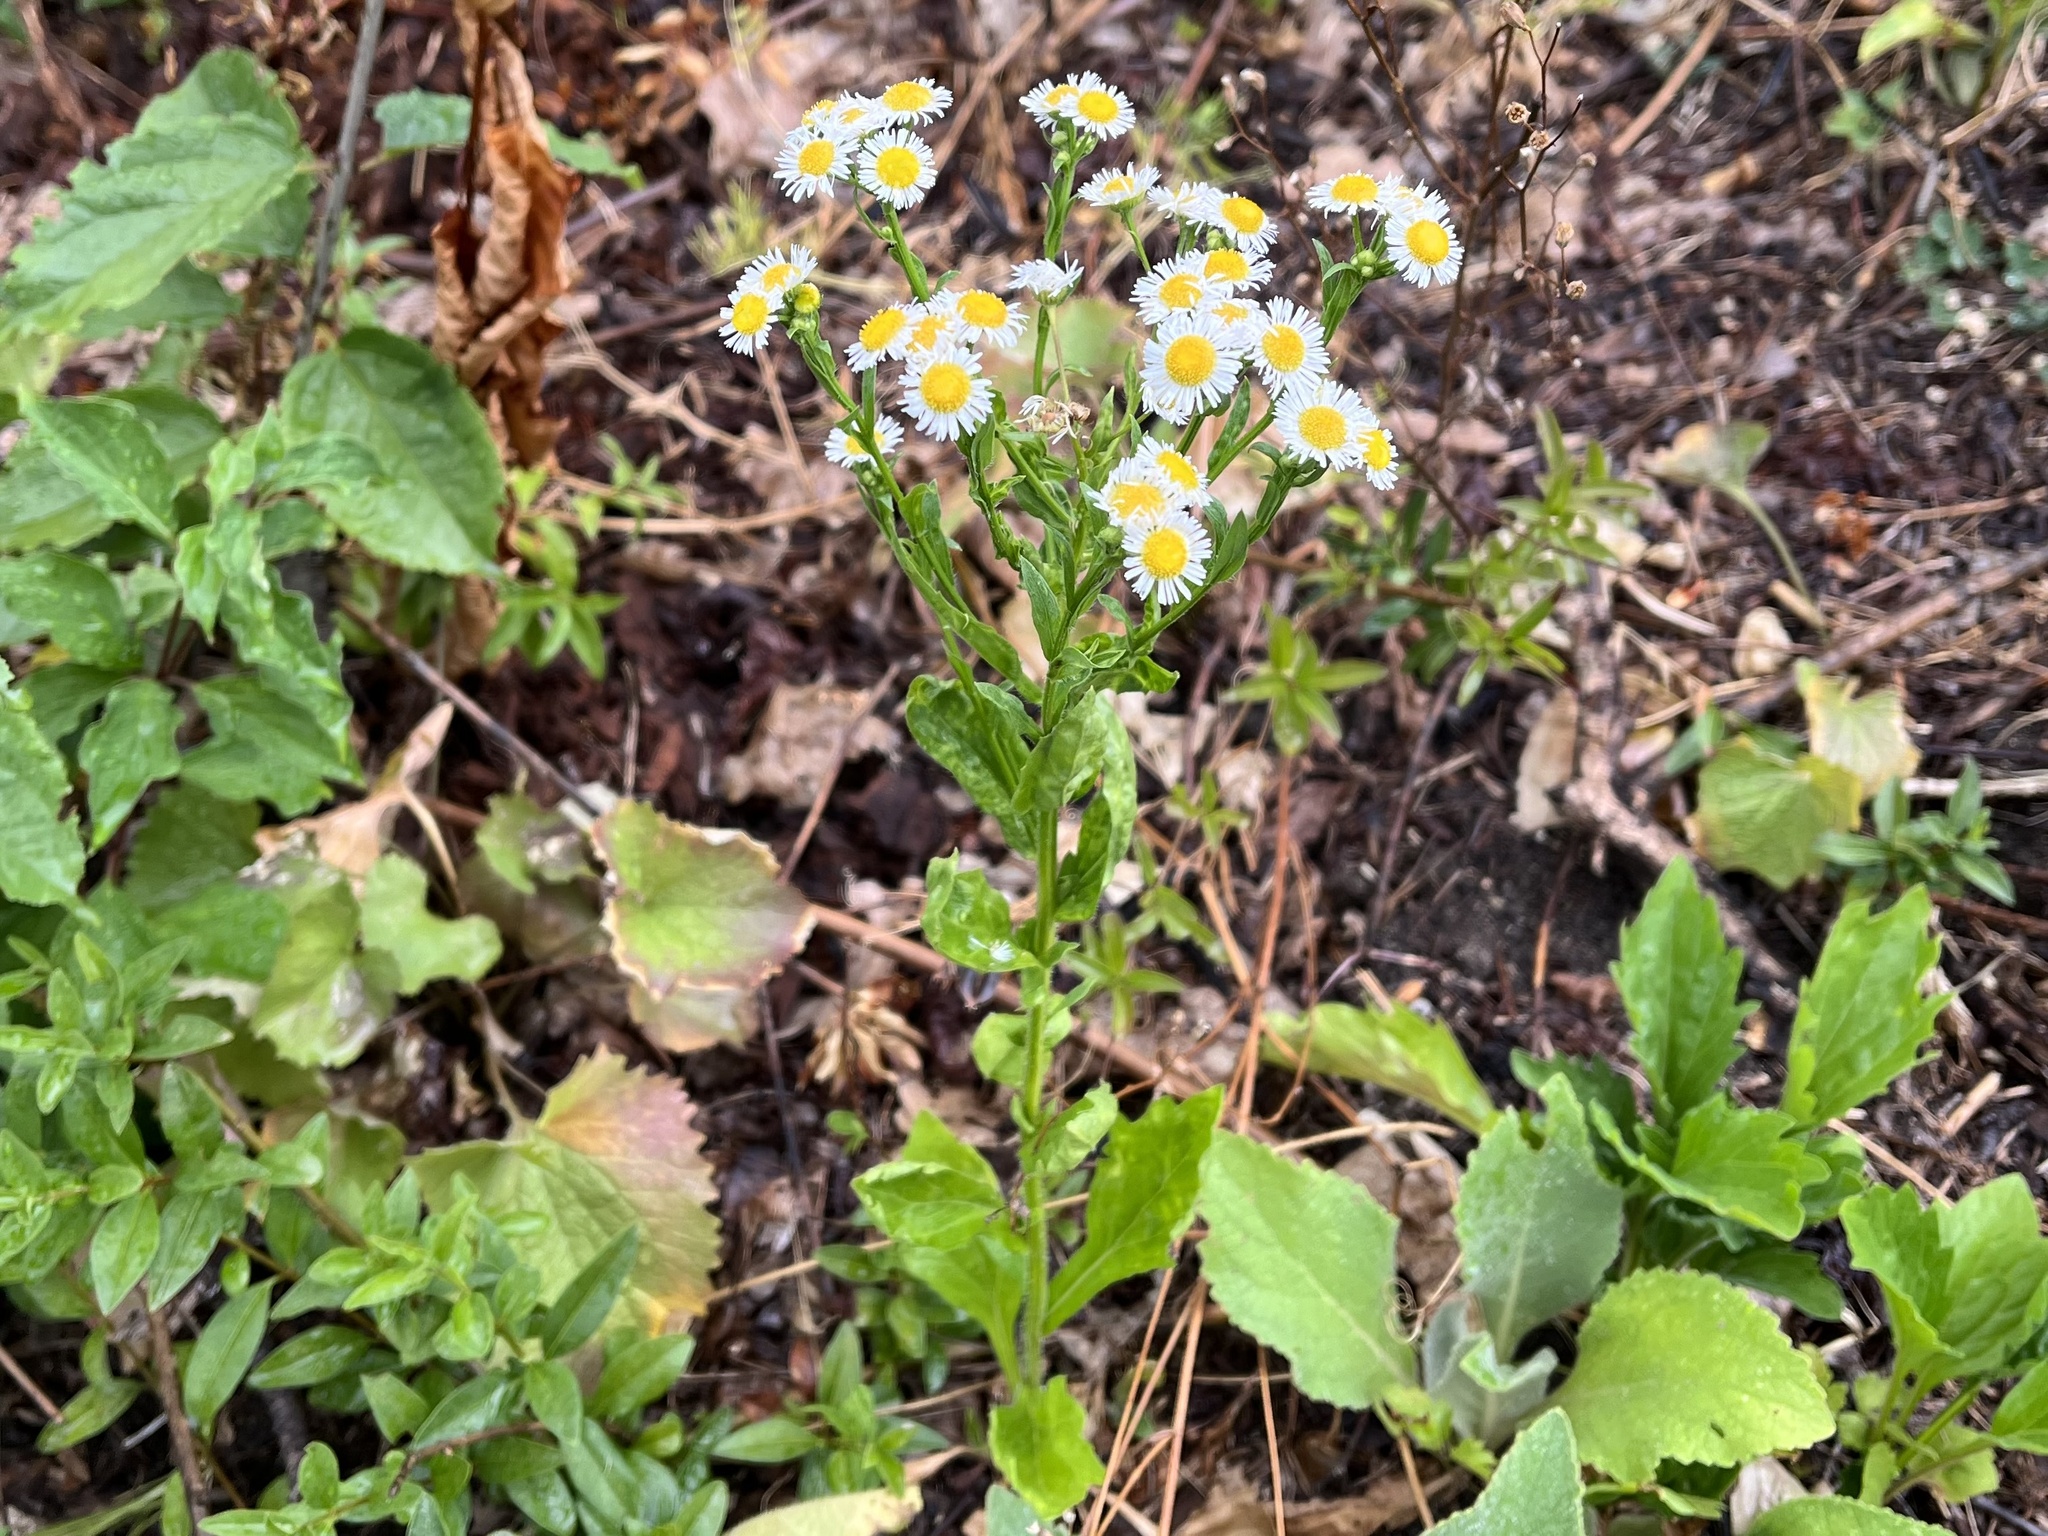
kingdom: Plantae
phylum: Tracheophyta
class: Magnoliopsida
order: Asterales
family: Asteraceae
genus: Erigeron
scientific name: Erigeron annuus
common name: Tall fleabane
